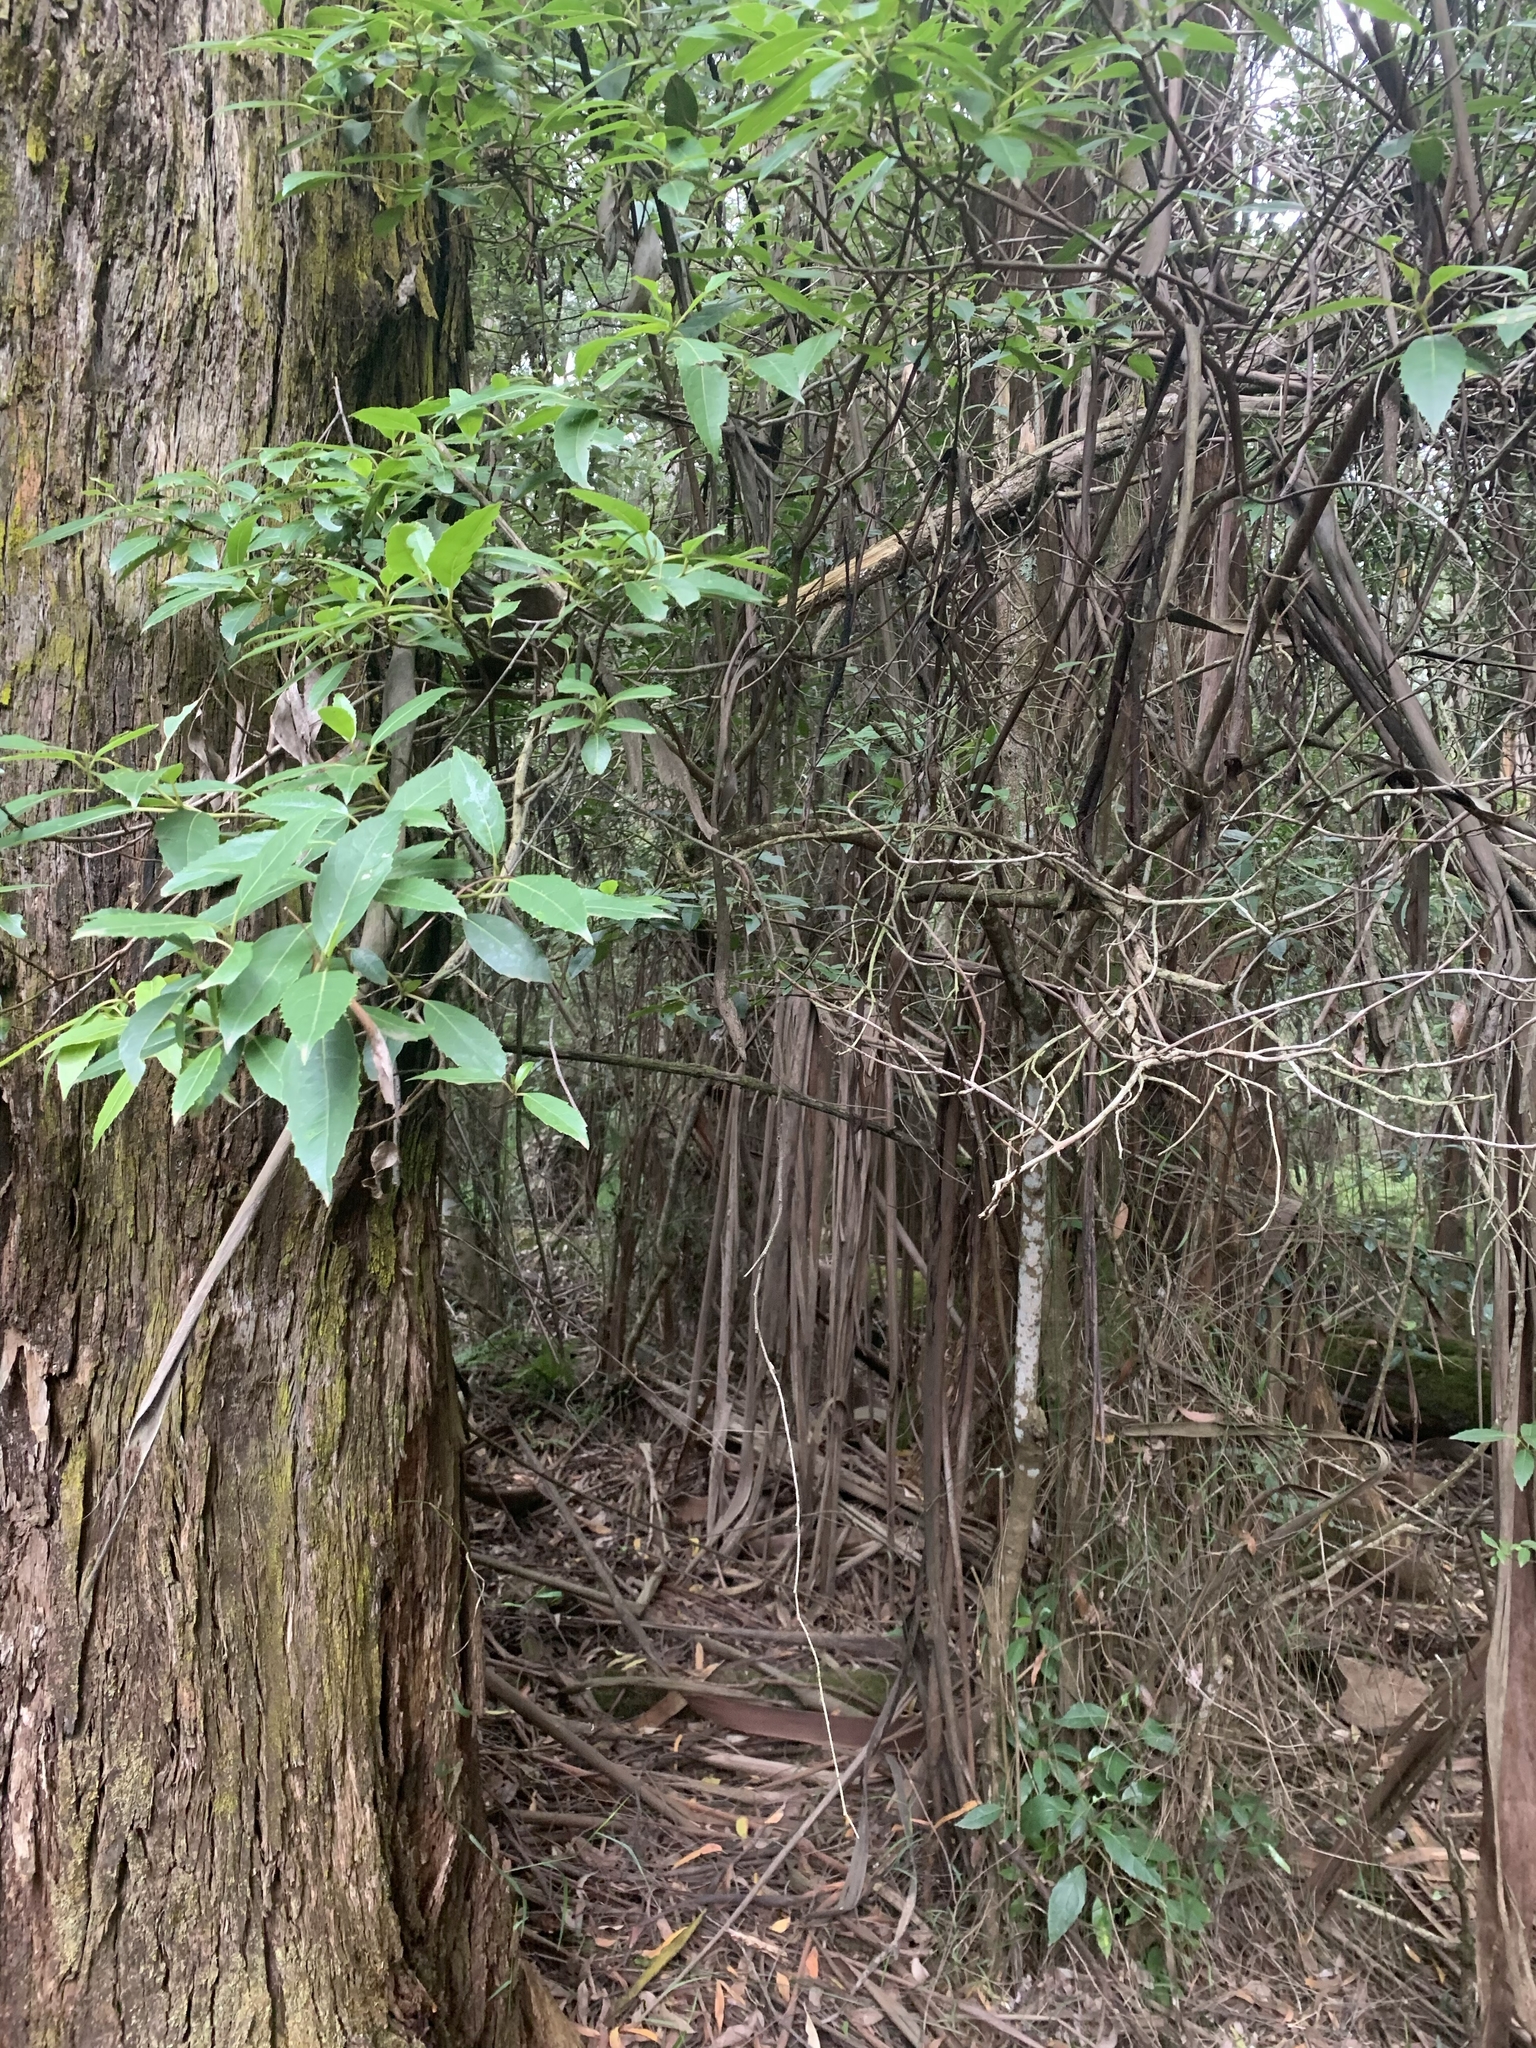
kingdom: Plantae
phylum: Tracheophyta
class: Magnoliopsida
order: Laurales
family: Monimiaceae
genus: Hedycarya
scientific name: Hedycarya angustifolia
